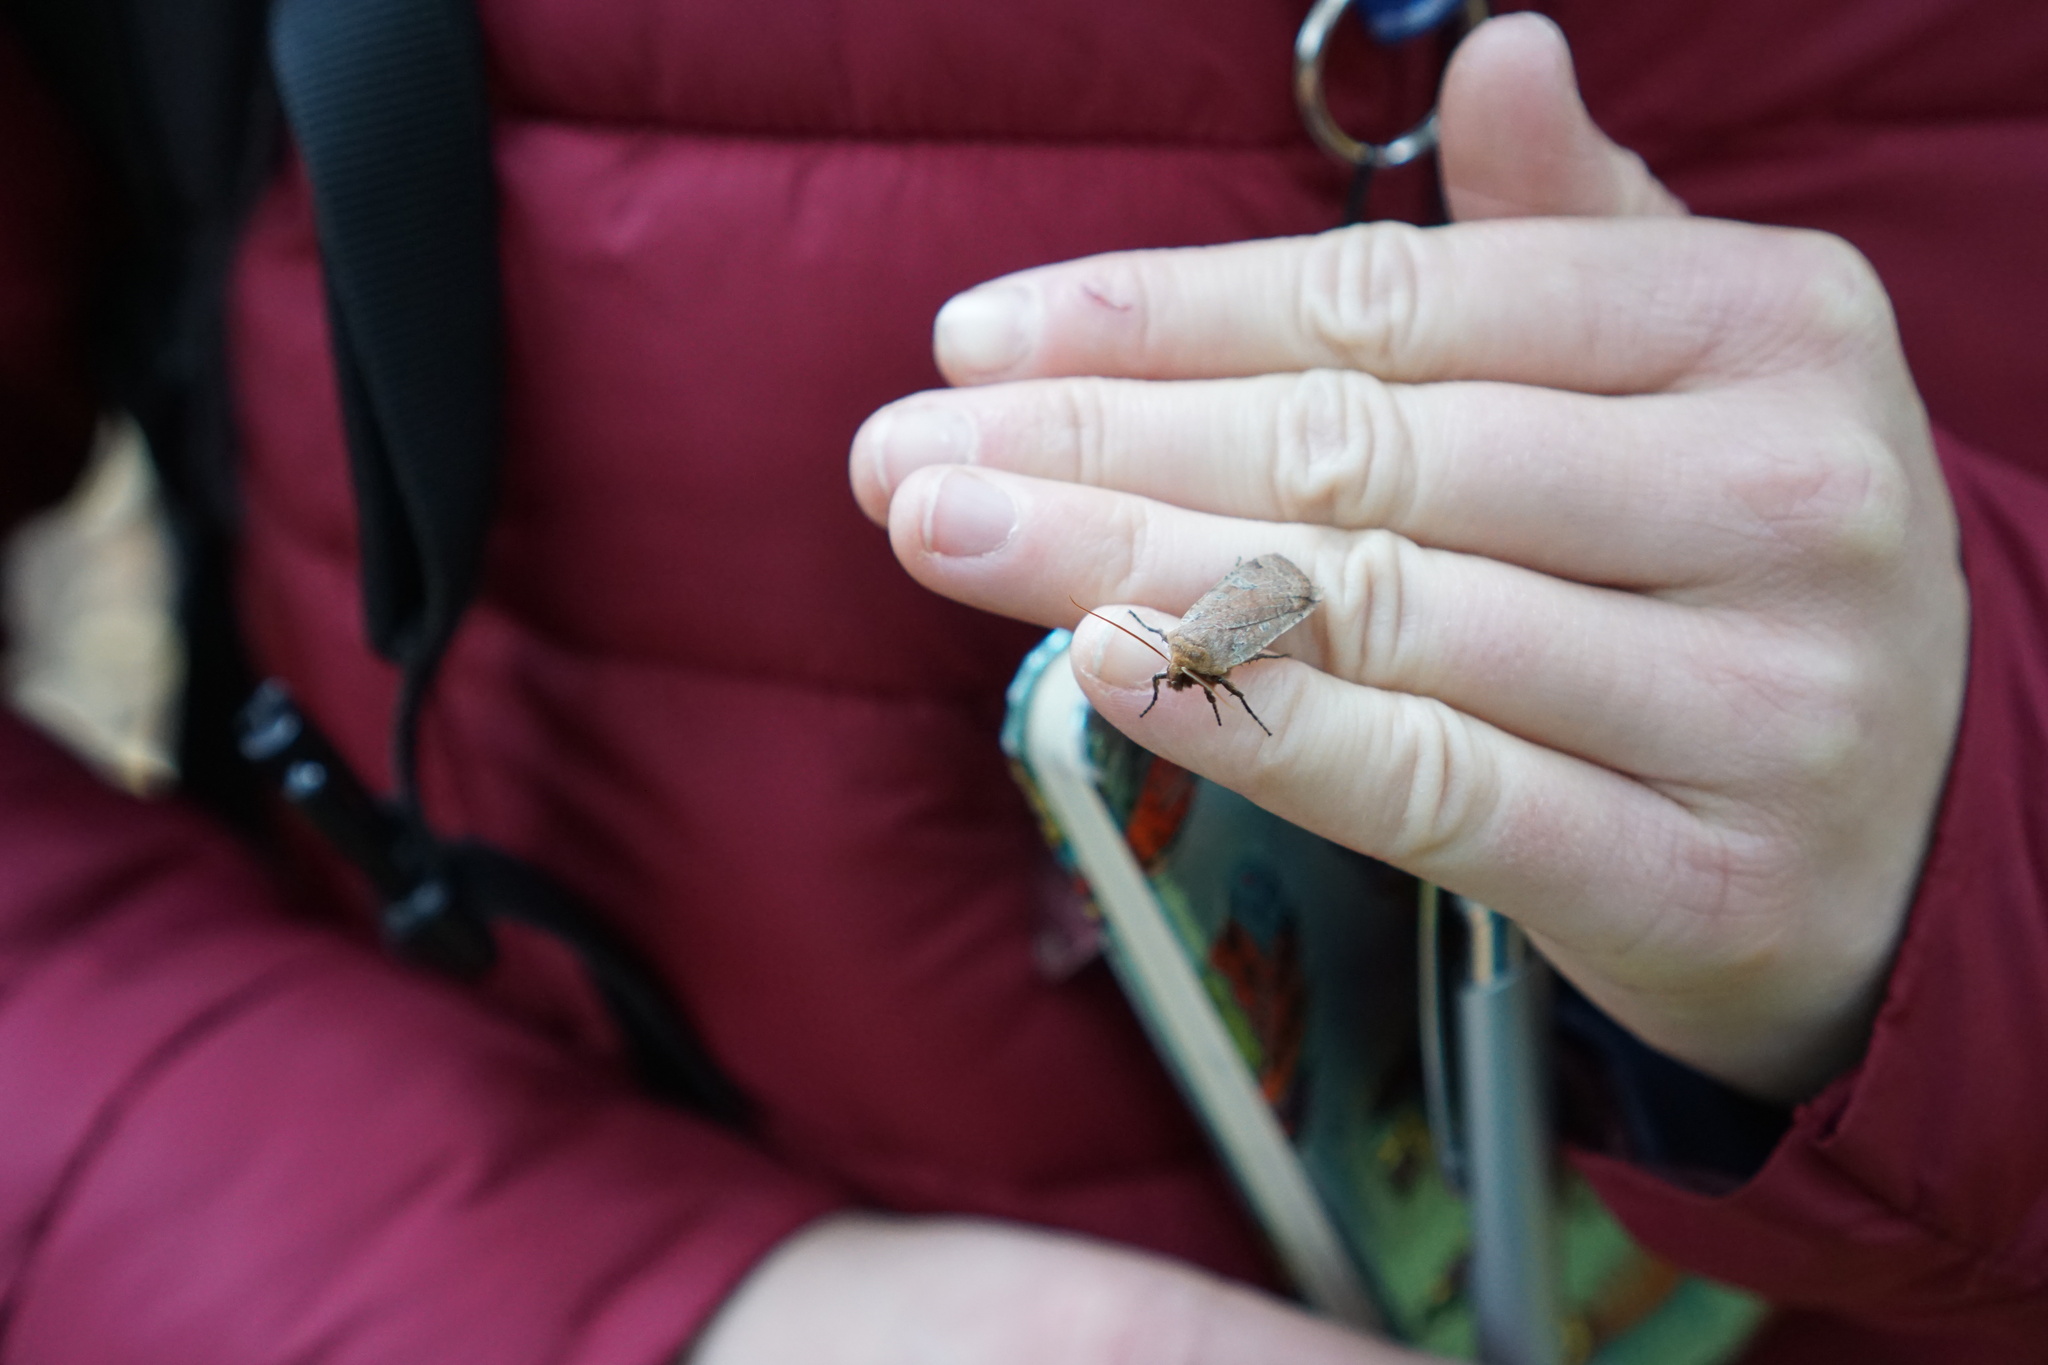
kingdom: Animalia
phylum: Arthropoda
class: Insecta
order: Lepidoptera
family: Noctuidae
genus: Conistra
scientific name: Conistra erythrocephala
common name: Red-headed chestnut
